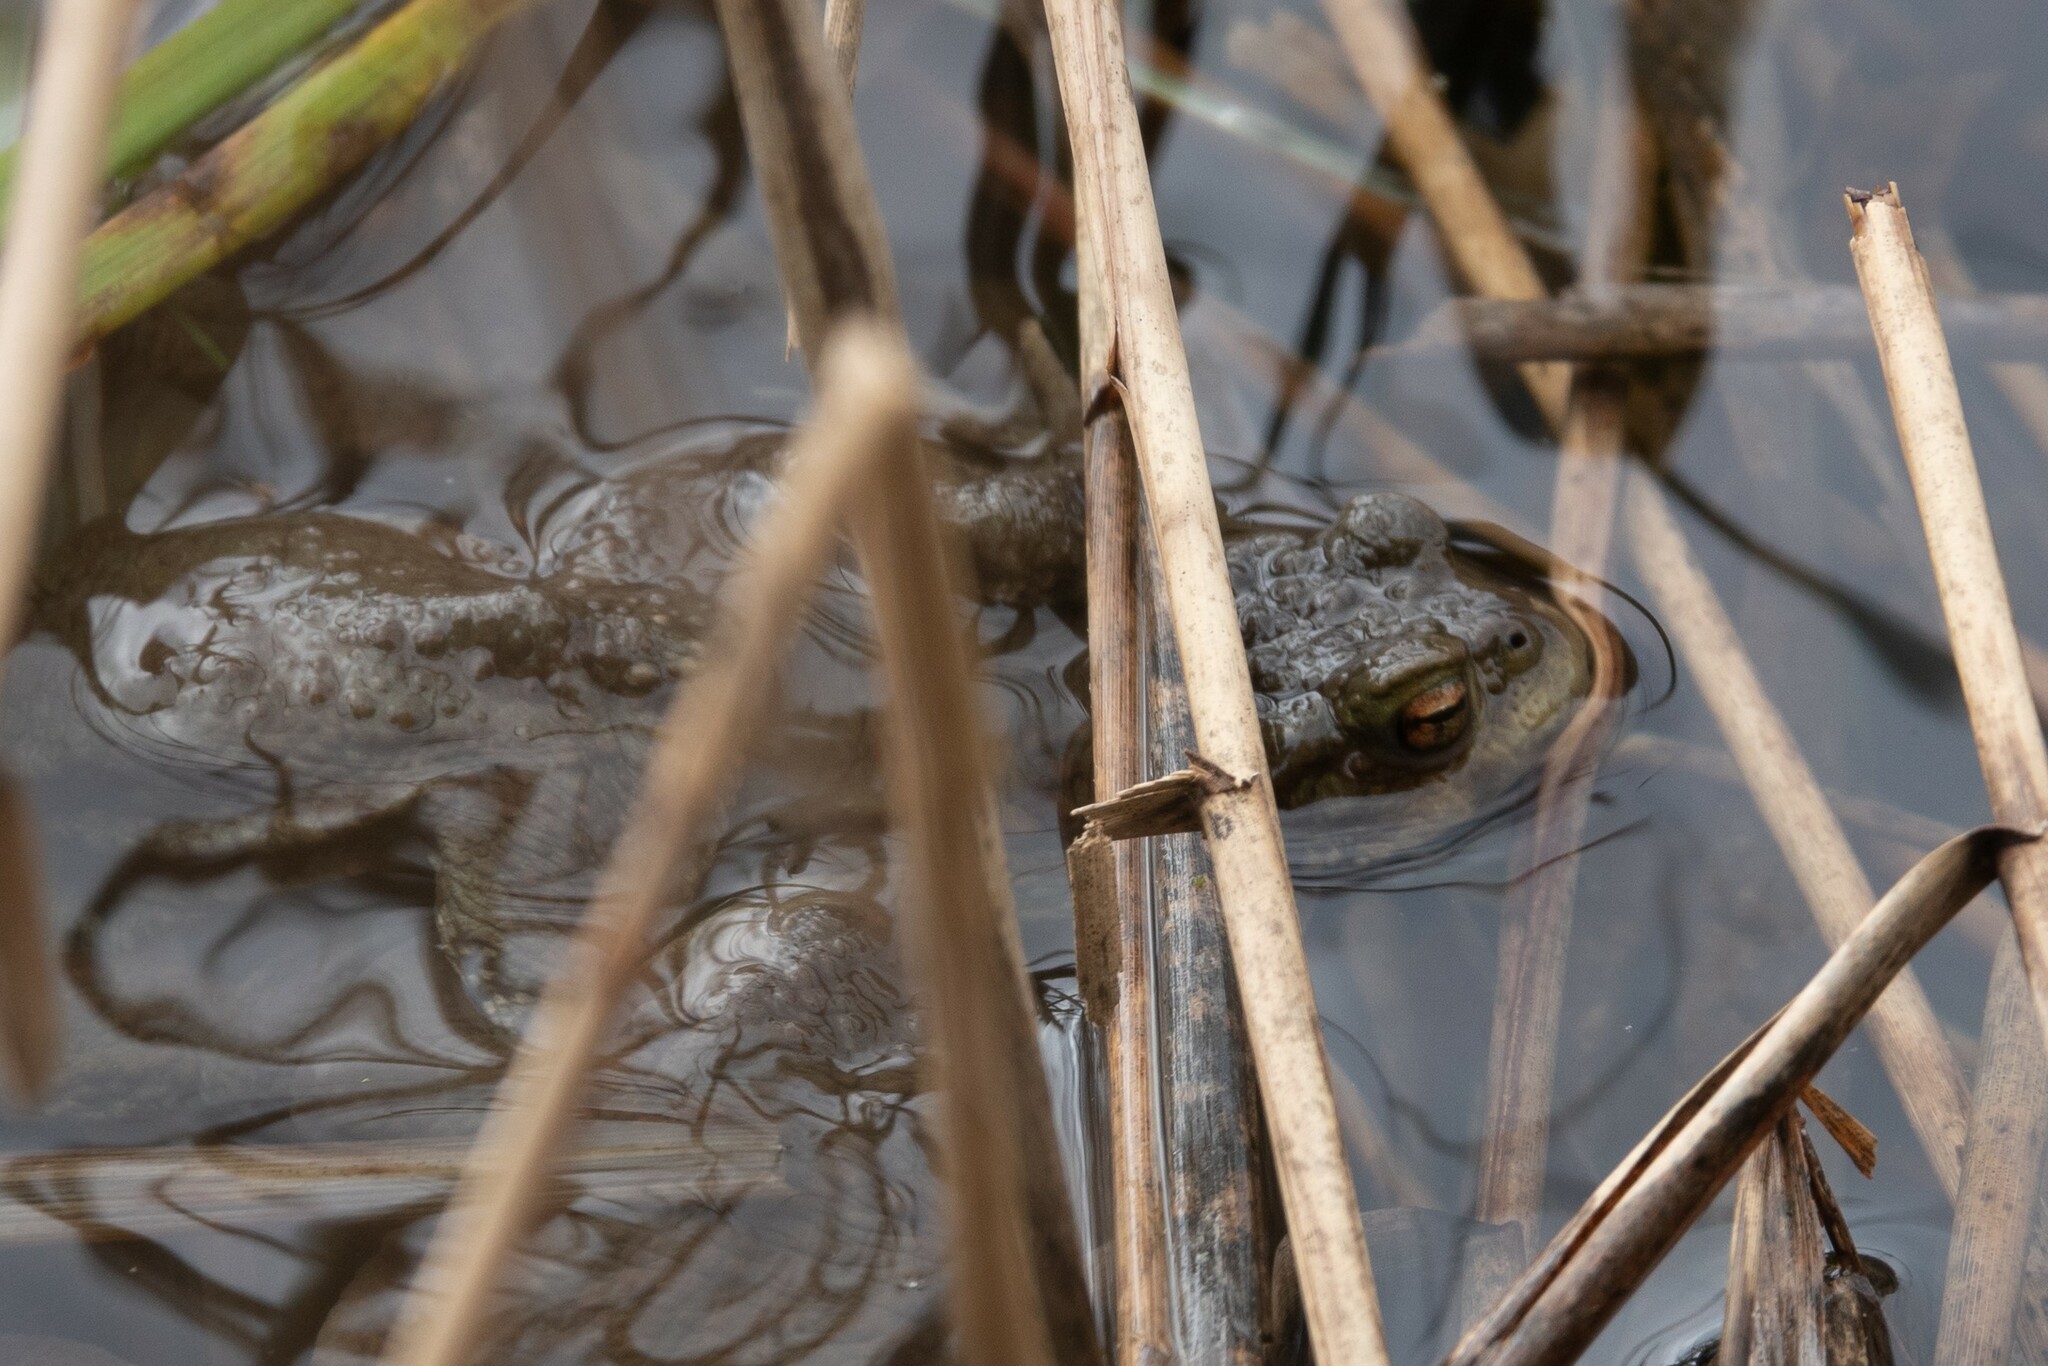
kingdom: Animalia
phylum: Chordata
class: Amphibia
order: Anura
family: Bufonidae
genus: Bufo
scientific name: Bufo bufo
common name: Common toad
